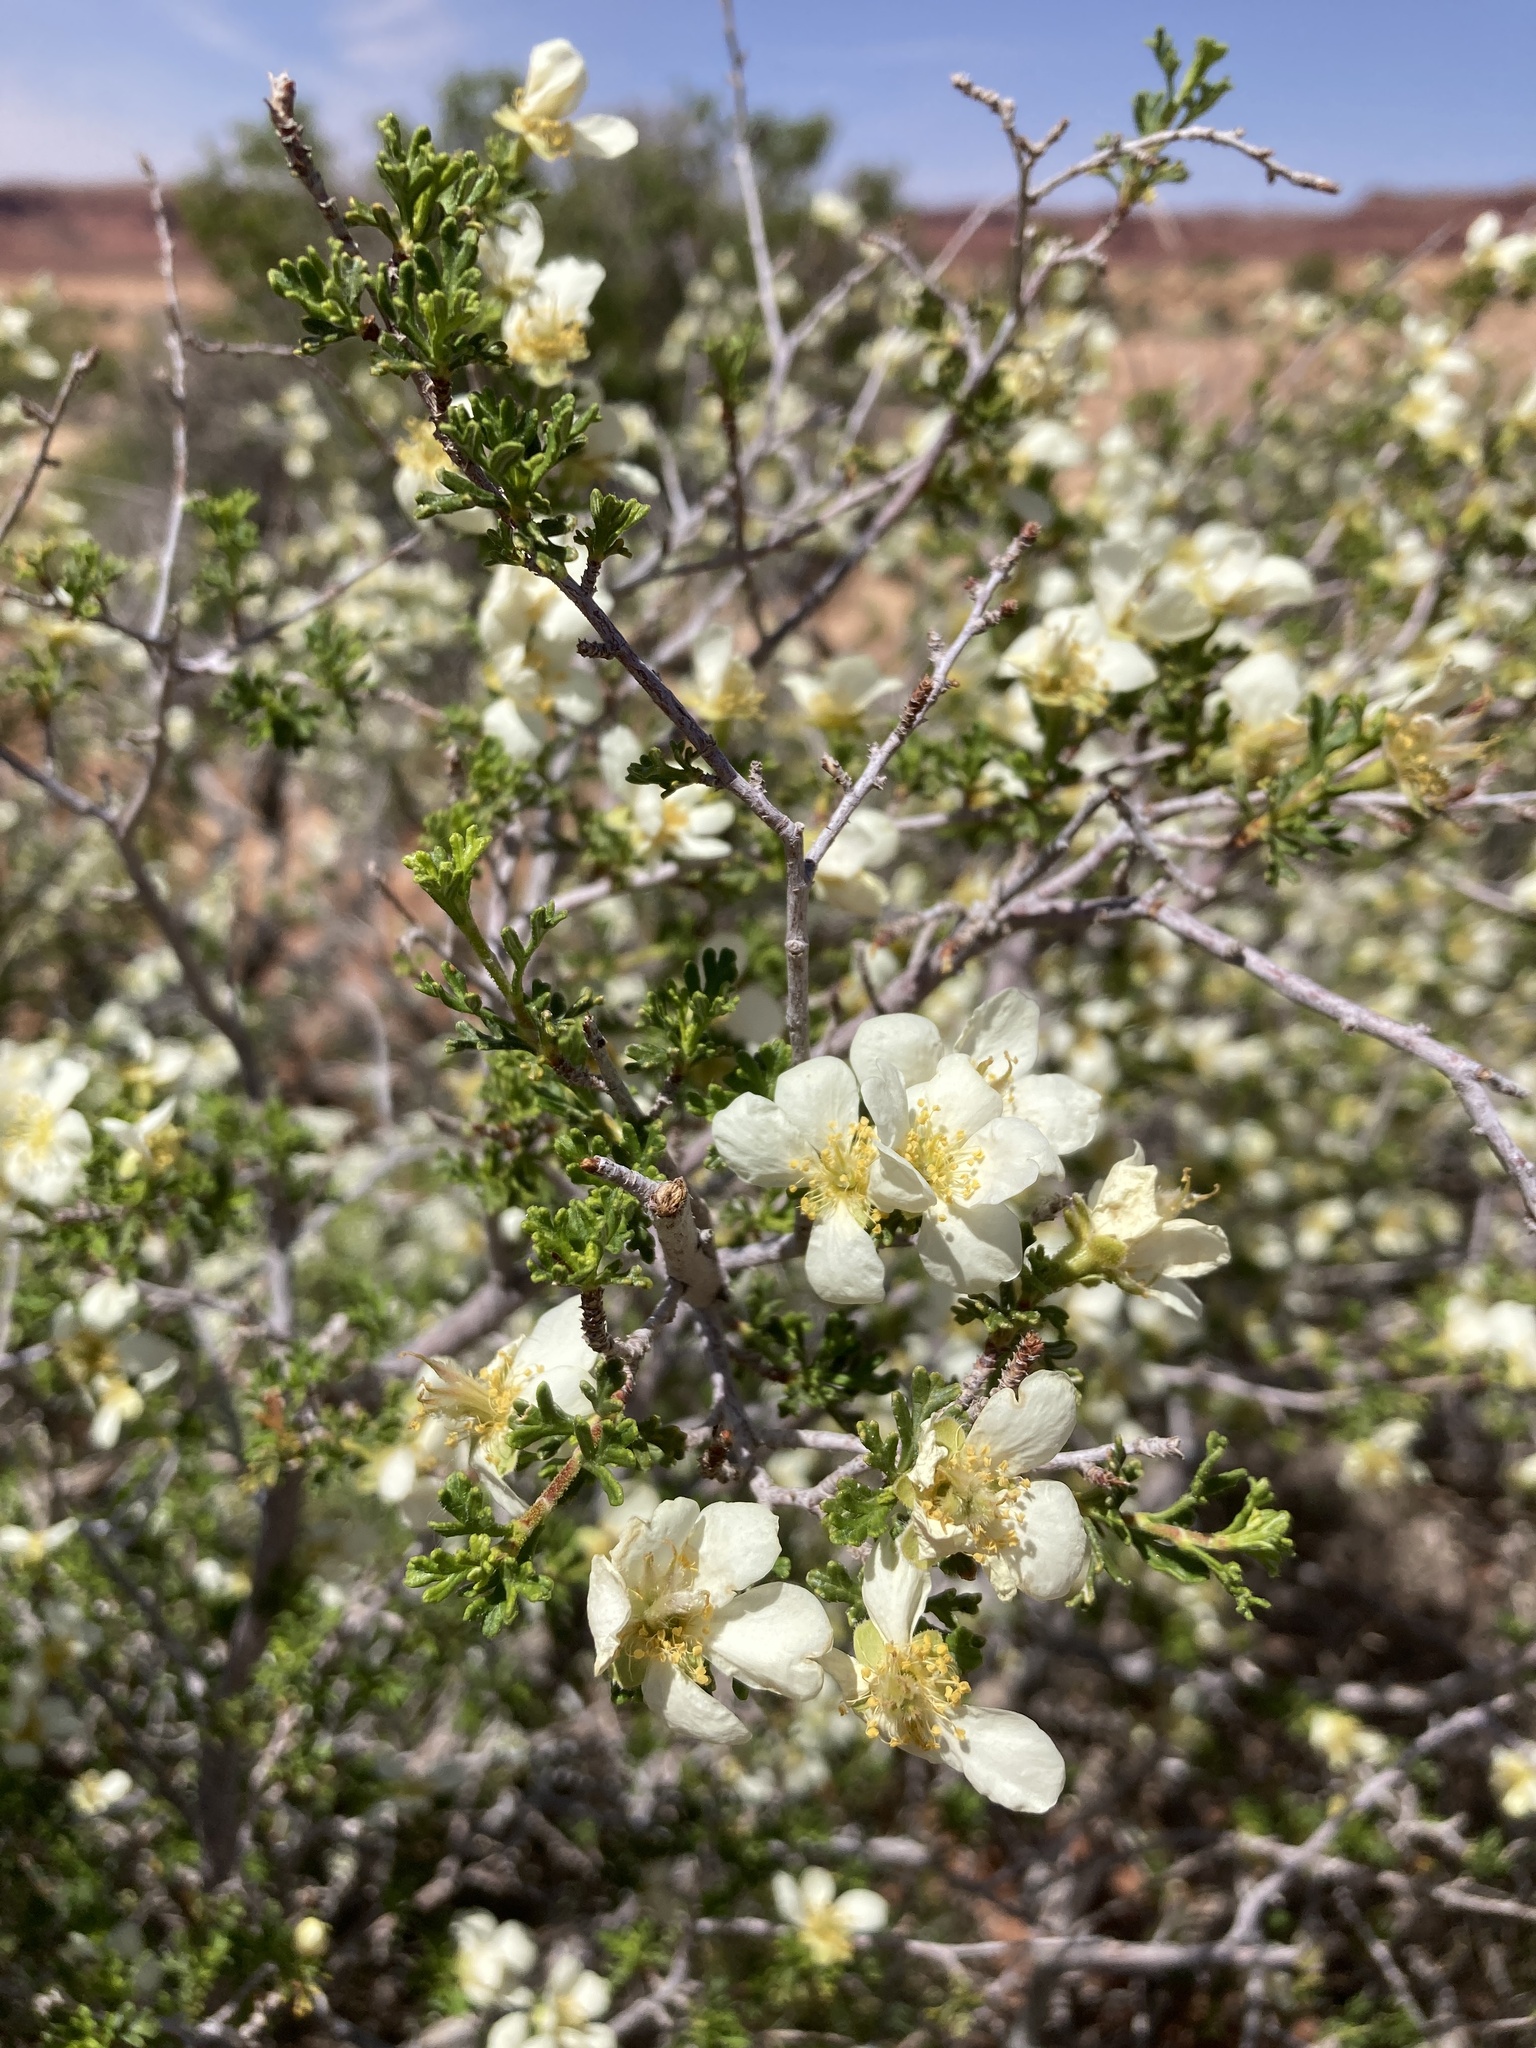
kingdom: Plantae
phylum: Tracheophyta
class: Magnoliopsida
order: Rosales
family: Rosaceae
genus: Purshia
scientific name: Purshia stansburiana
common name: Stansbury's cliffrose
